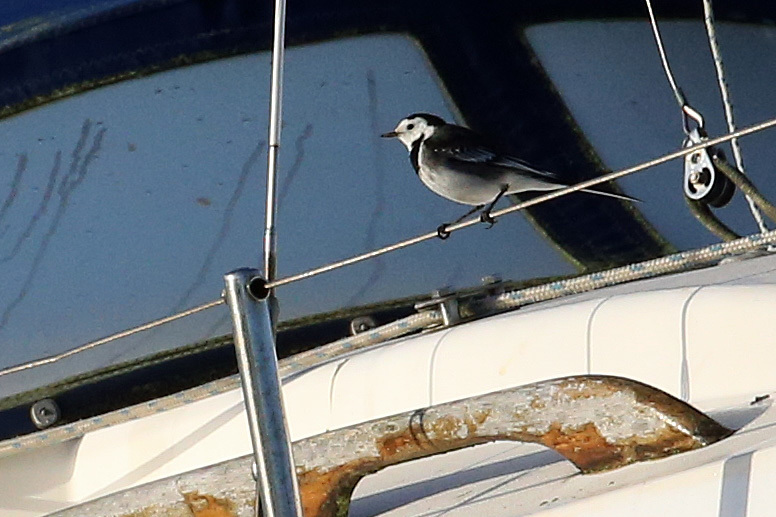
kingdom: Animalia
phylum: Chordata
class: Aves
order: Passeriformes
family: Motacillidae
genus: Motacilla
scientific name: Motacilla alba
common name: White wagtail
